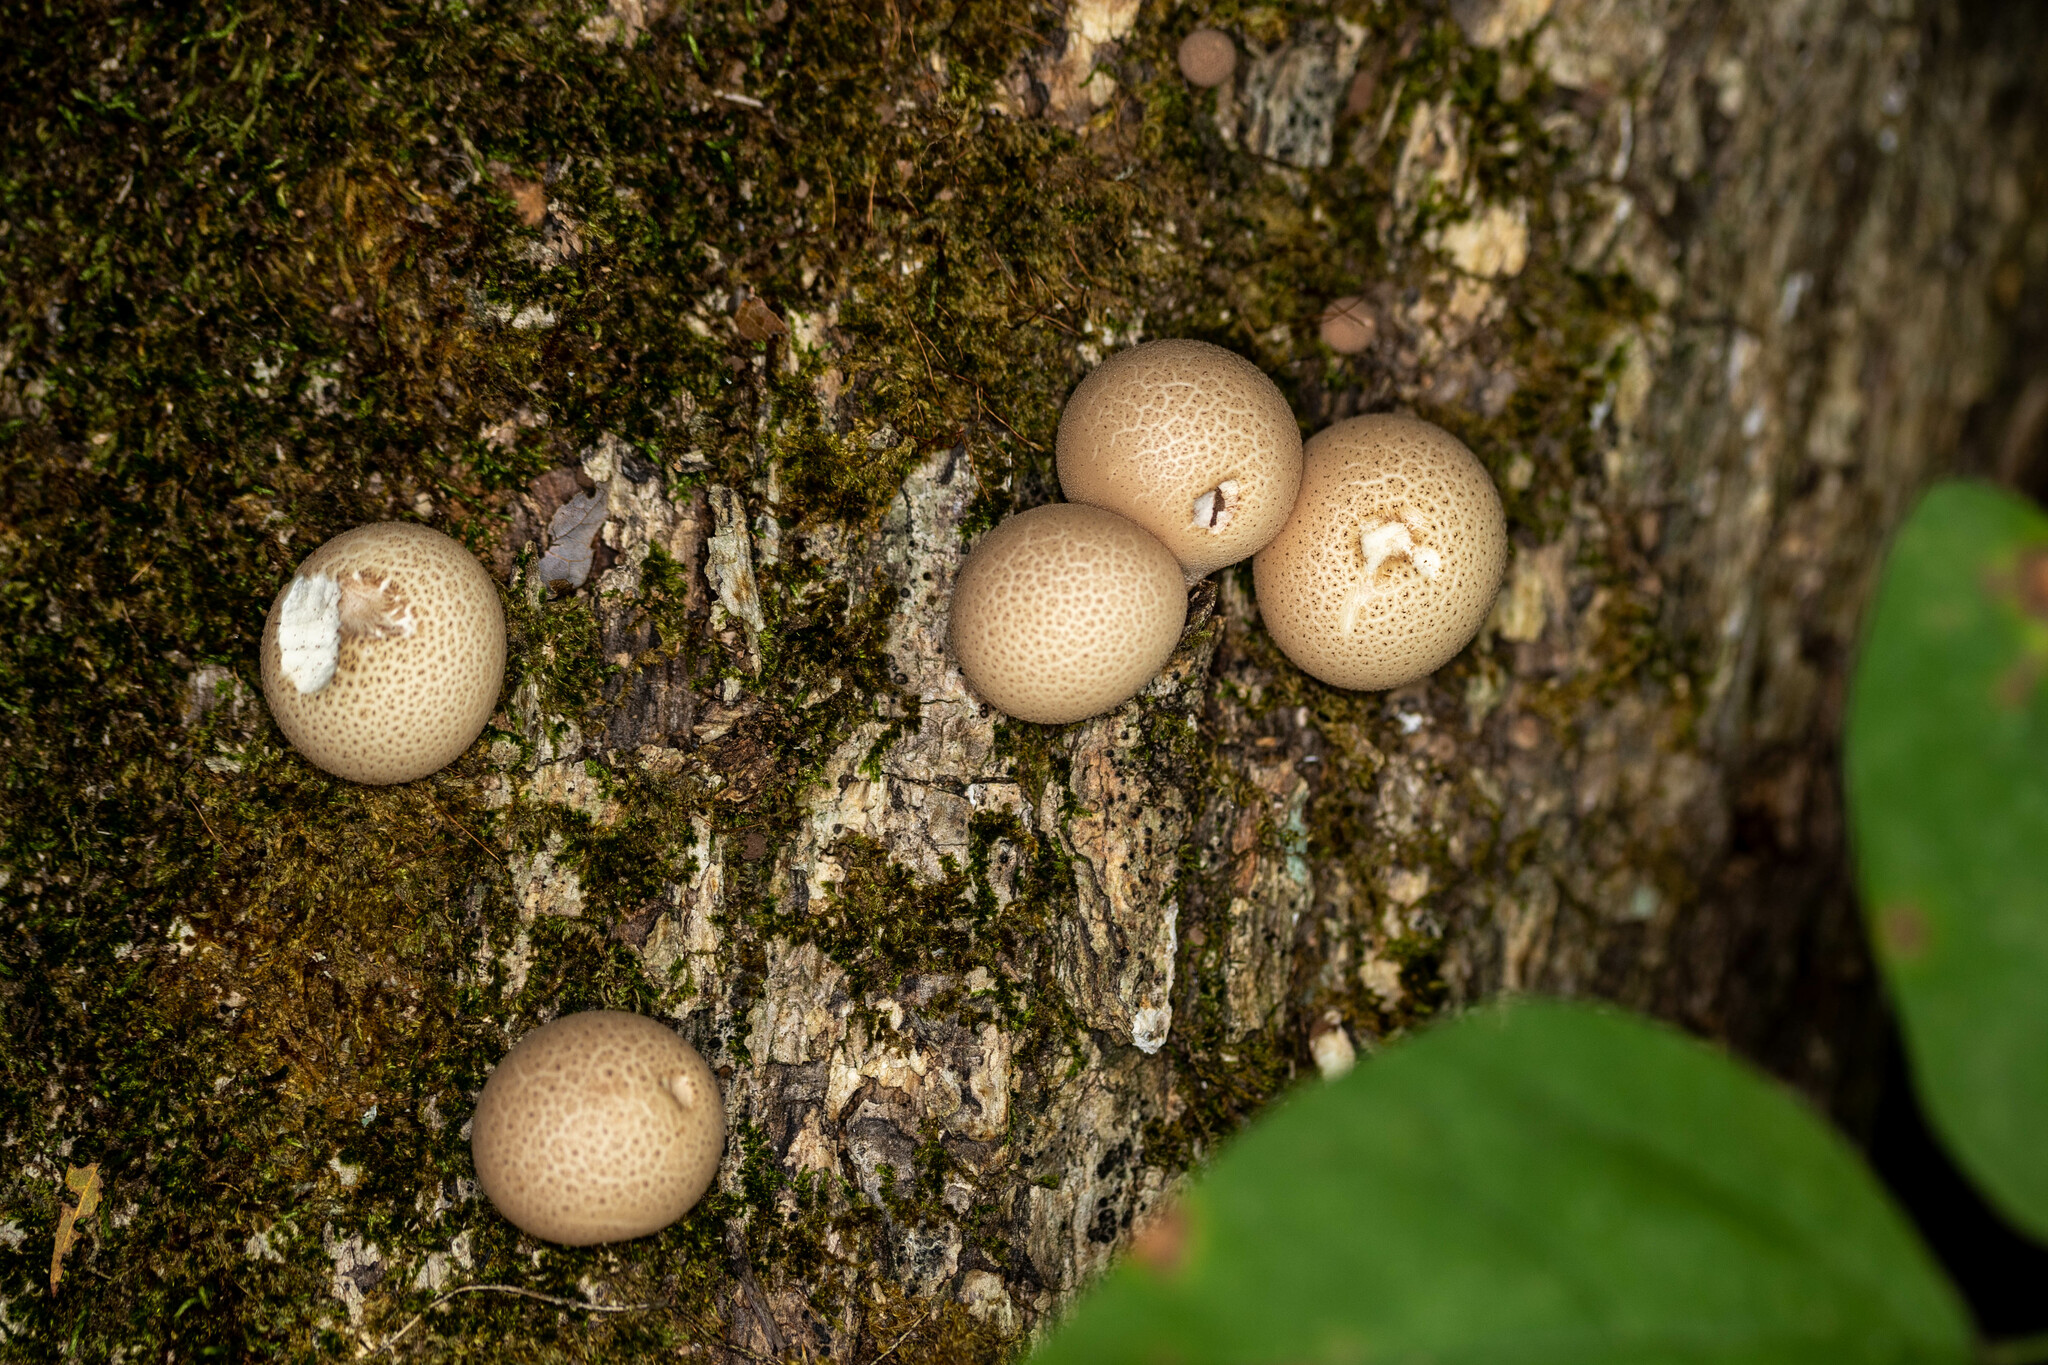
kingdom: Fungi
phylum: Basidiomycota
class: Agaricomycetes
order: Agaricales
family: Lycoperdaceae
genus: Apioperdon
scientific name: Apioperdon pyriforme
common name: Pear-shaped puffball
